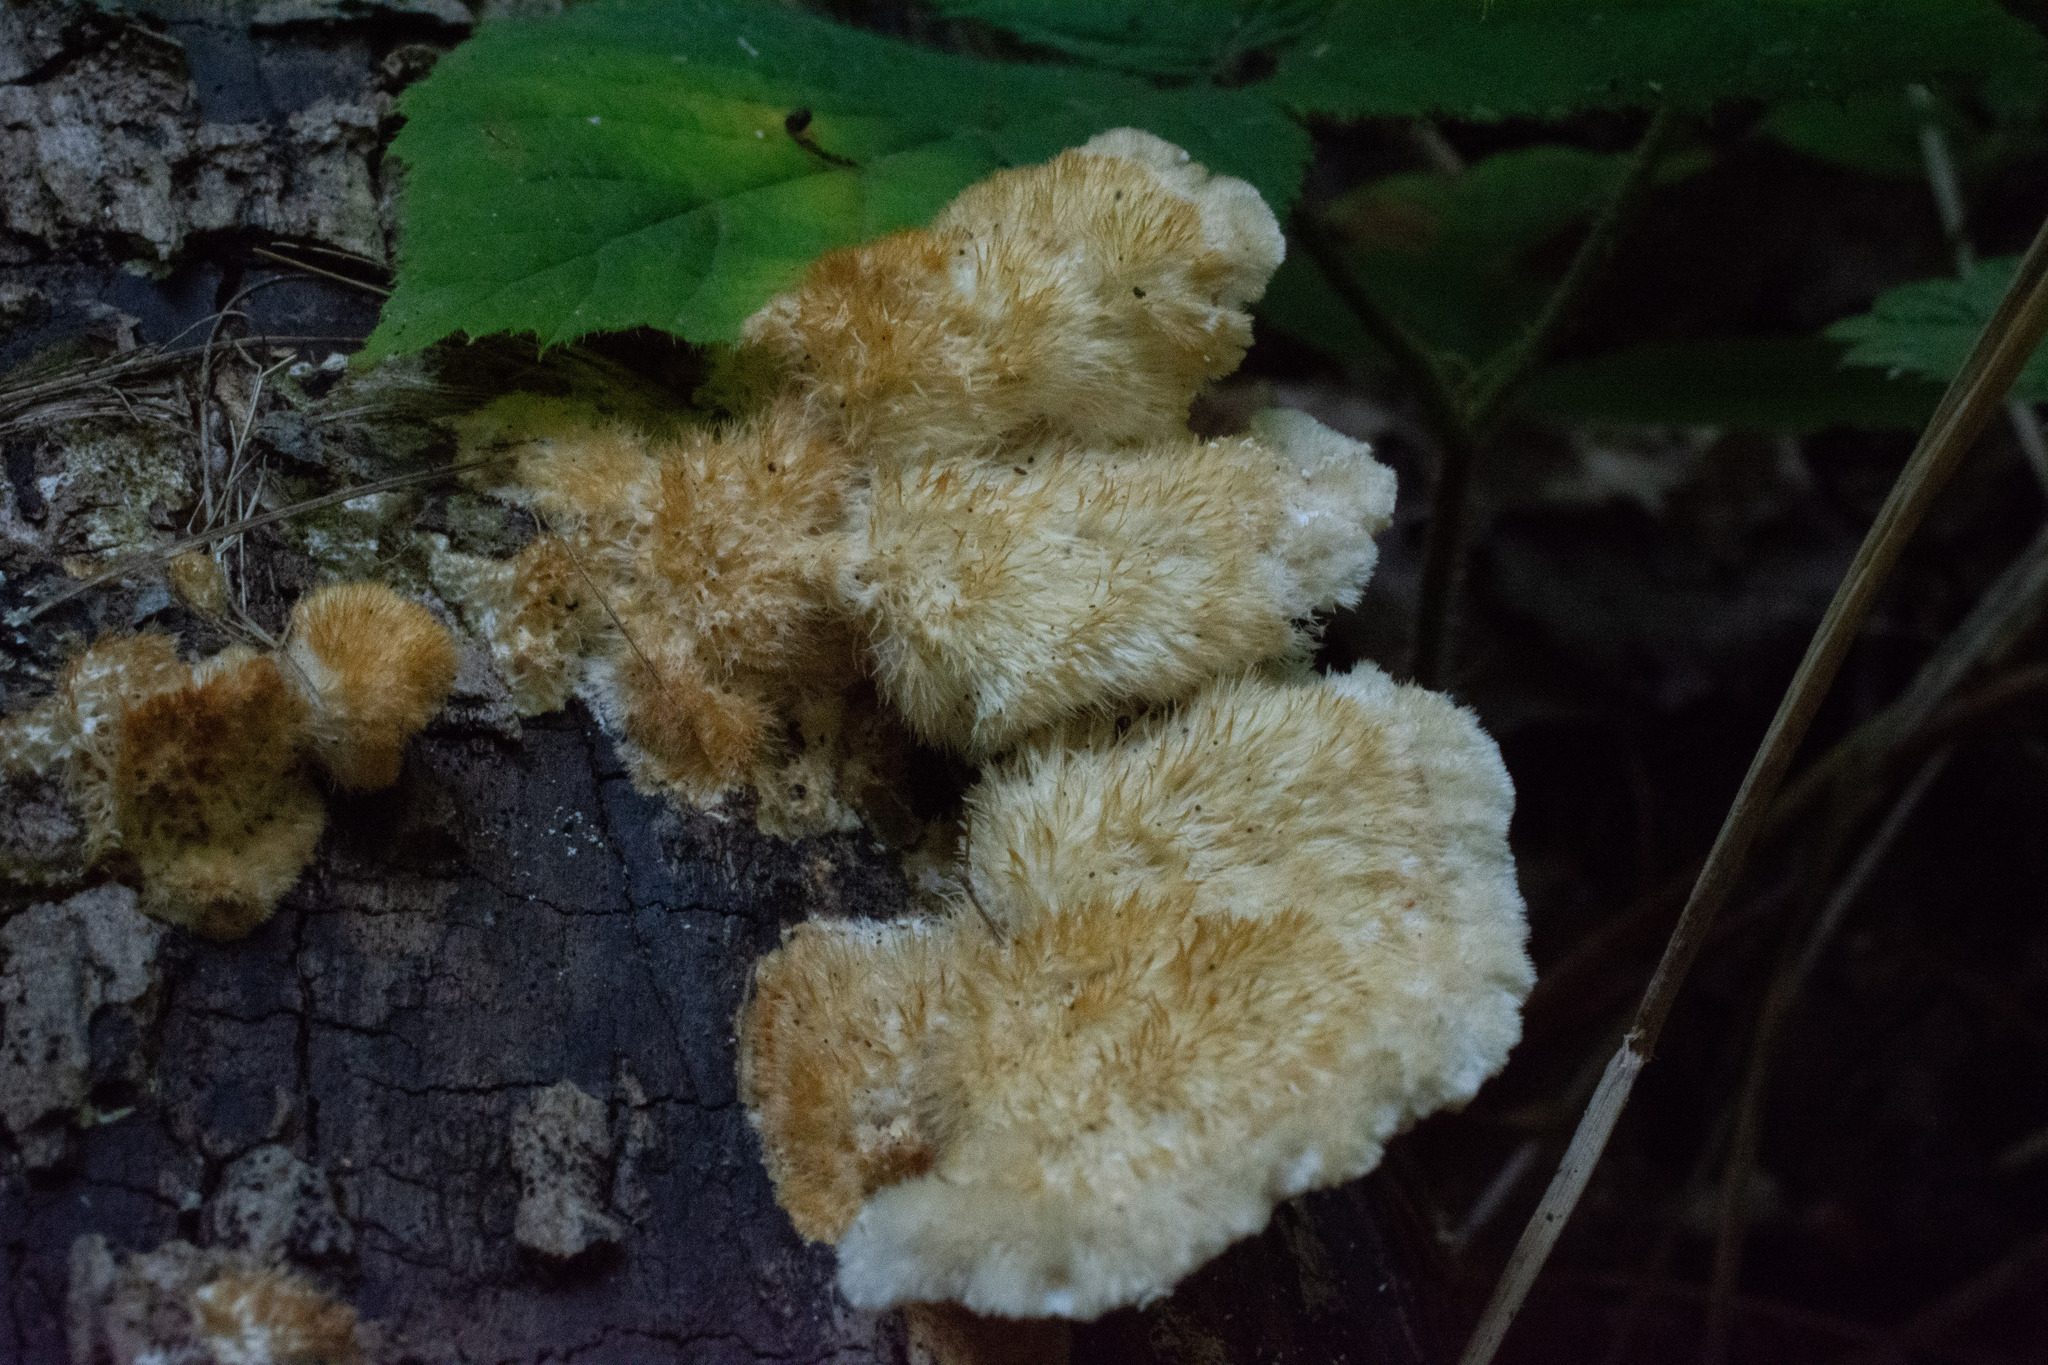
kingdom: Fungi
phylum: Basidiomycota
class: Agaricomycetes
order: Polyporales
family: Polyporaceae
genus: Trametes
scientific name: Trametes trogii
